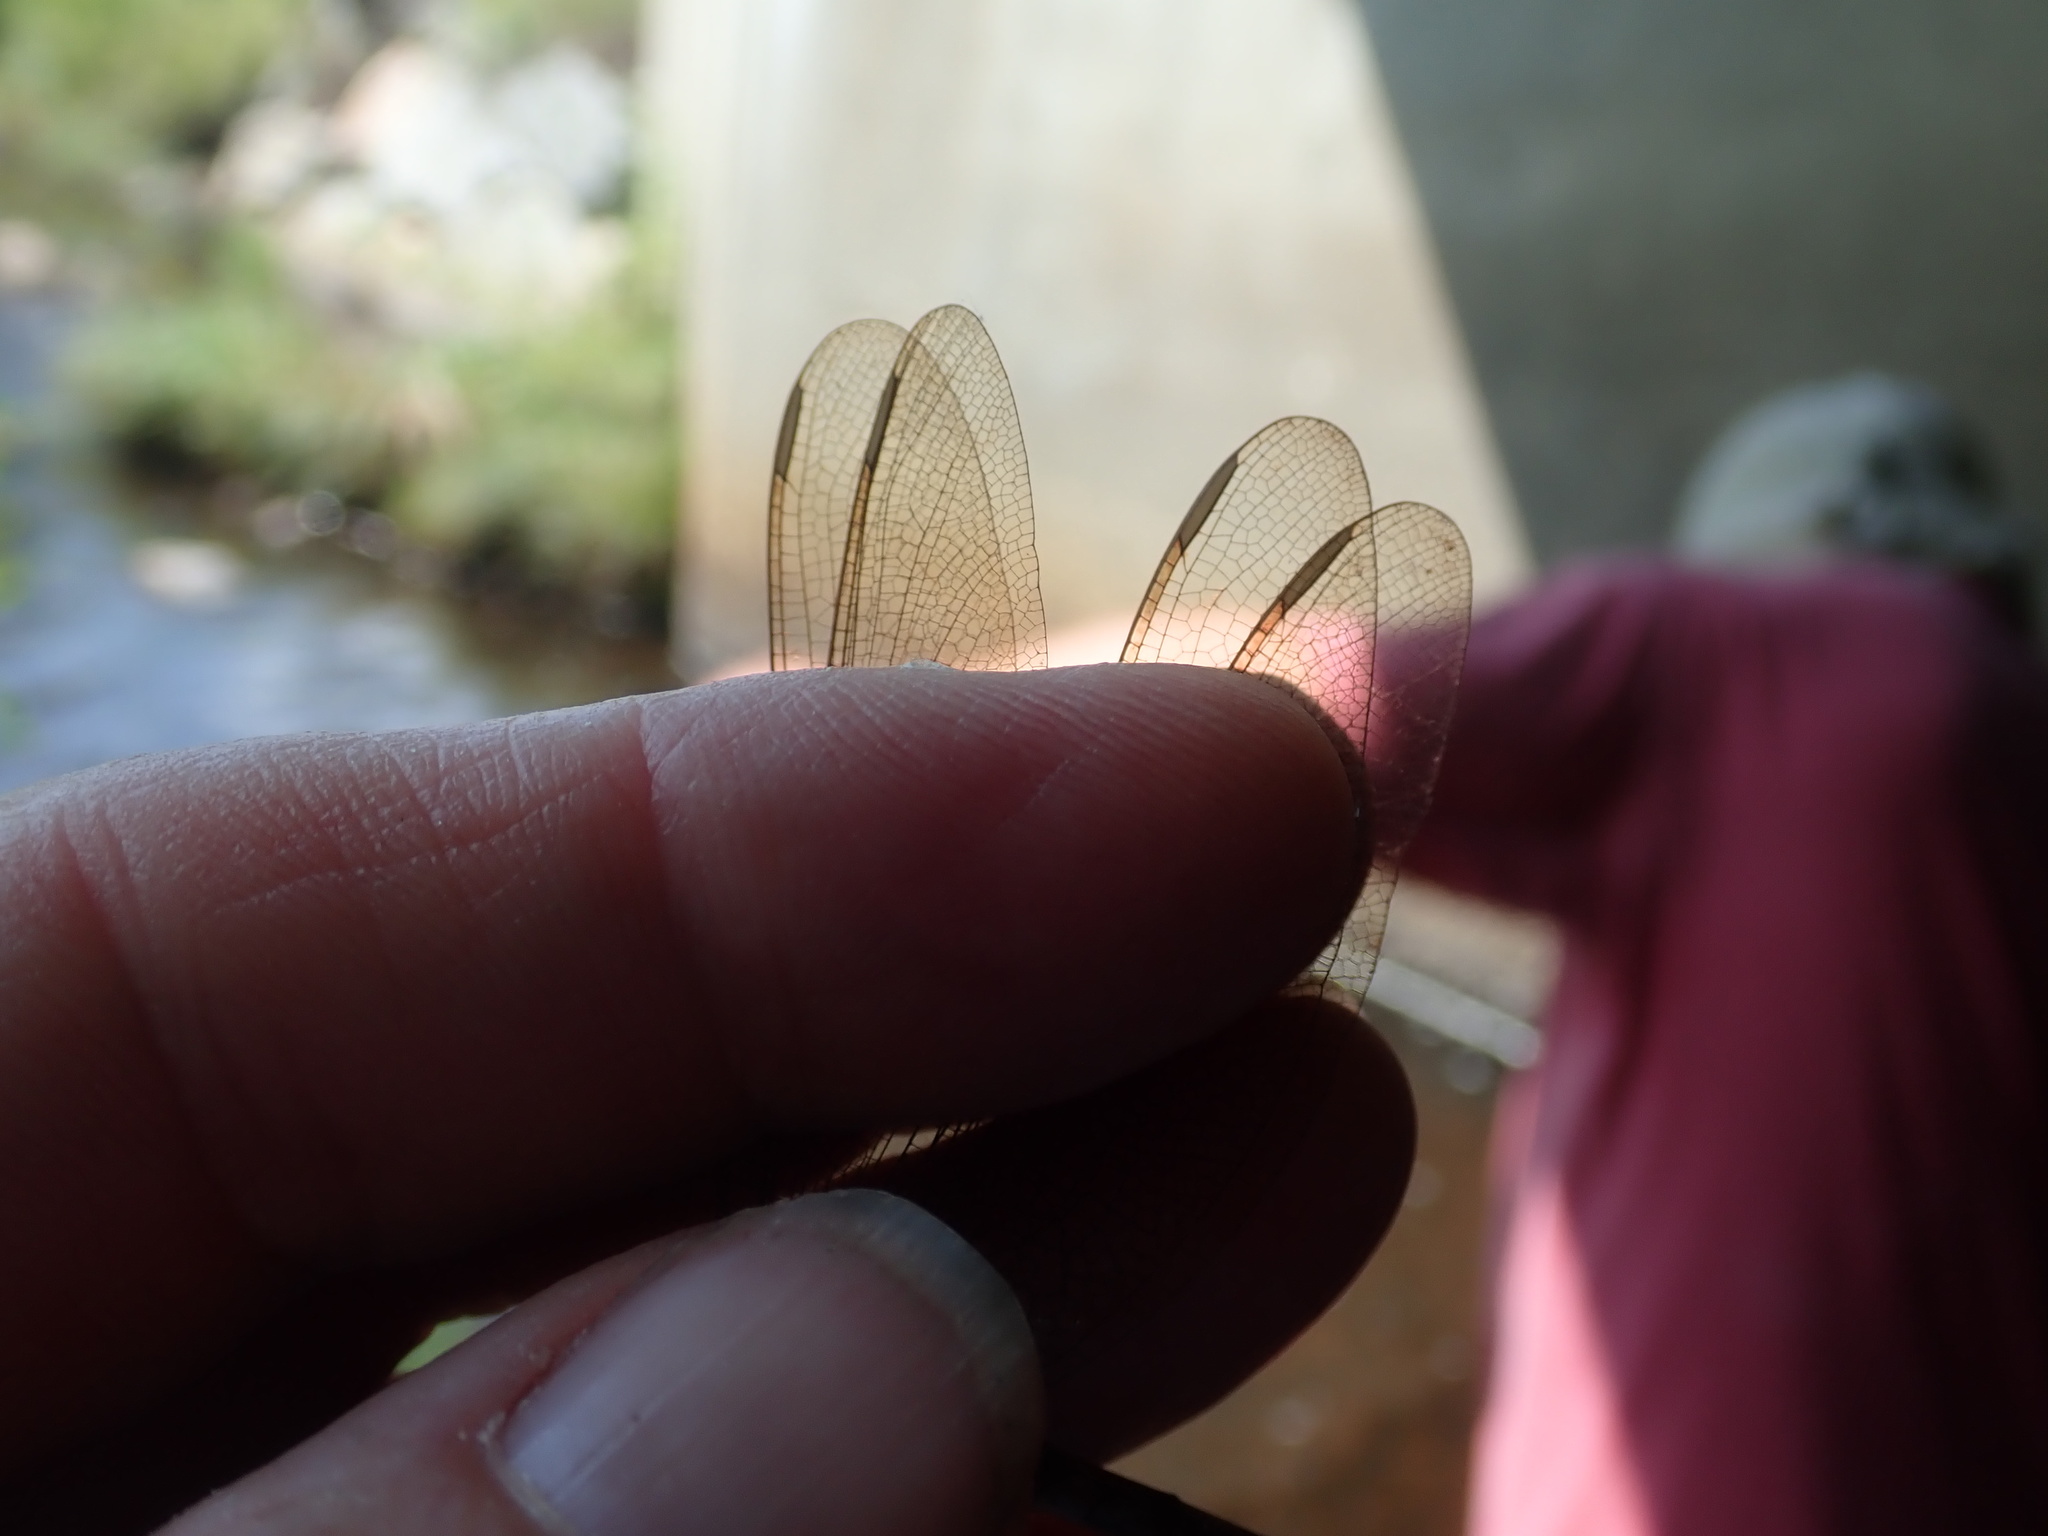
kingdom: Animalia
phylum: Arthropoda
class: Insecta
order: Odonata
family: Aeshnidae
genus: Boyeria
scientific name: Boyeria vinosa
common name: Fawn darner
